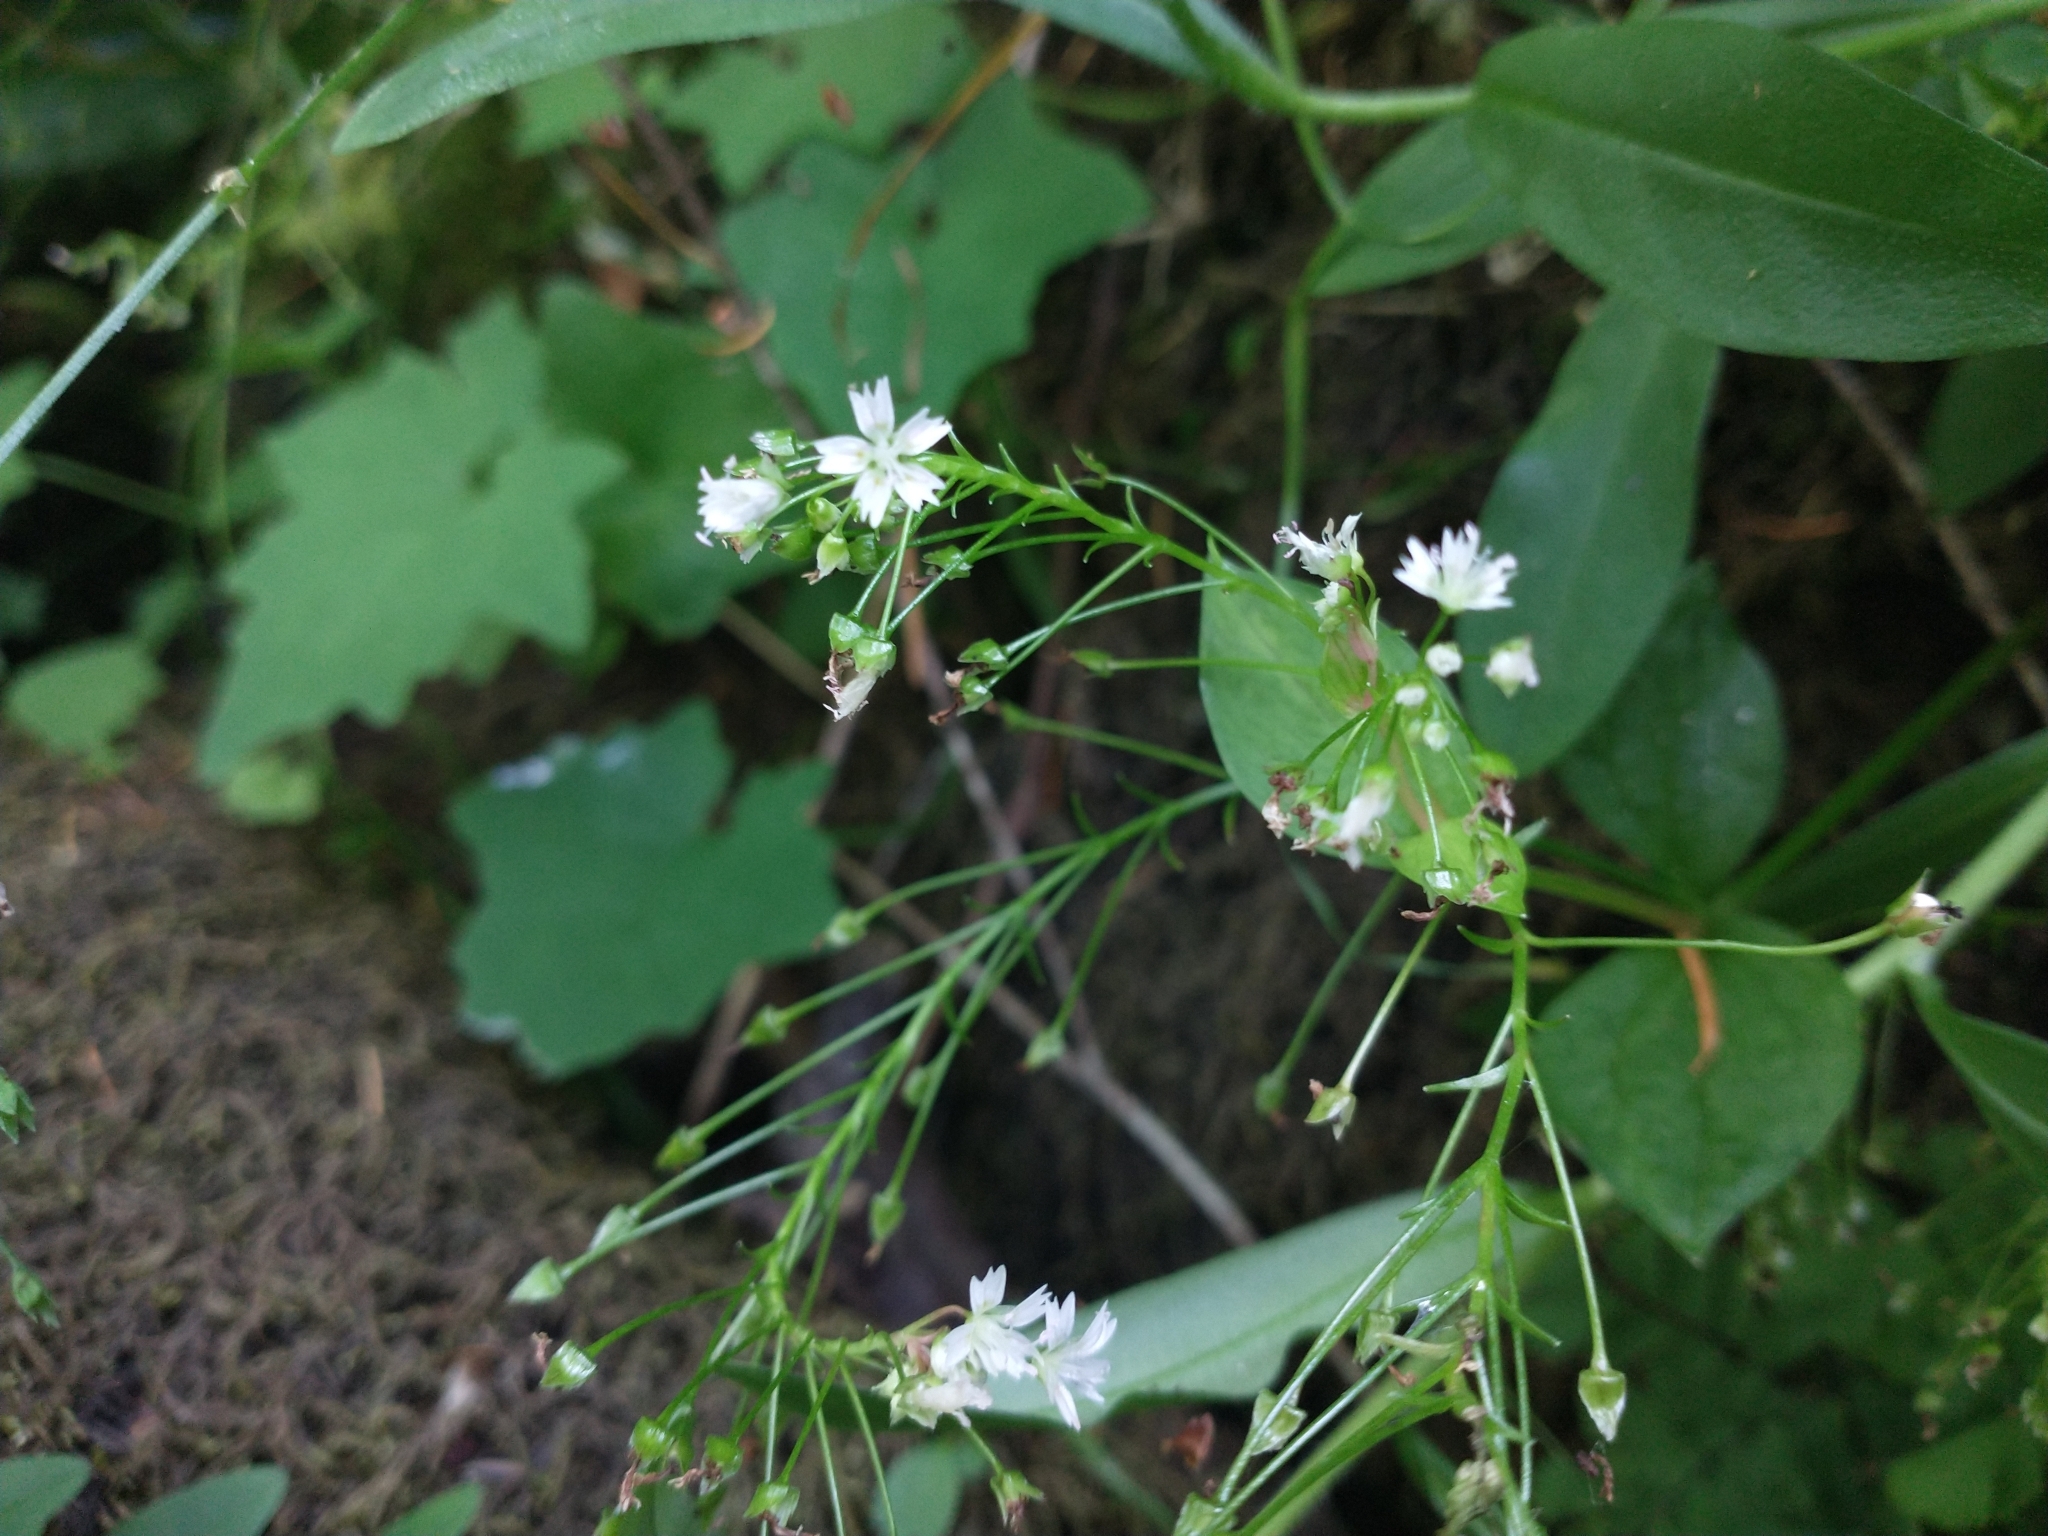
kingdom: Plantae
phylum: Tracheophyta
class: Magnoliopsida
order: Caryophyllales
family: Montiaceae
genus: Claytonia
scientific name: Claytonia sibirica
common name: Pink purslane
